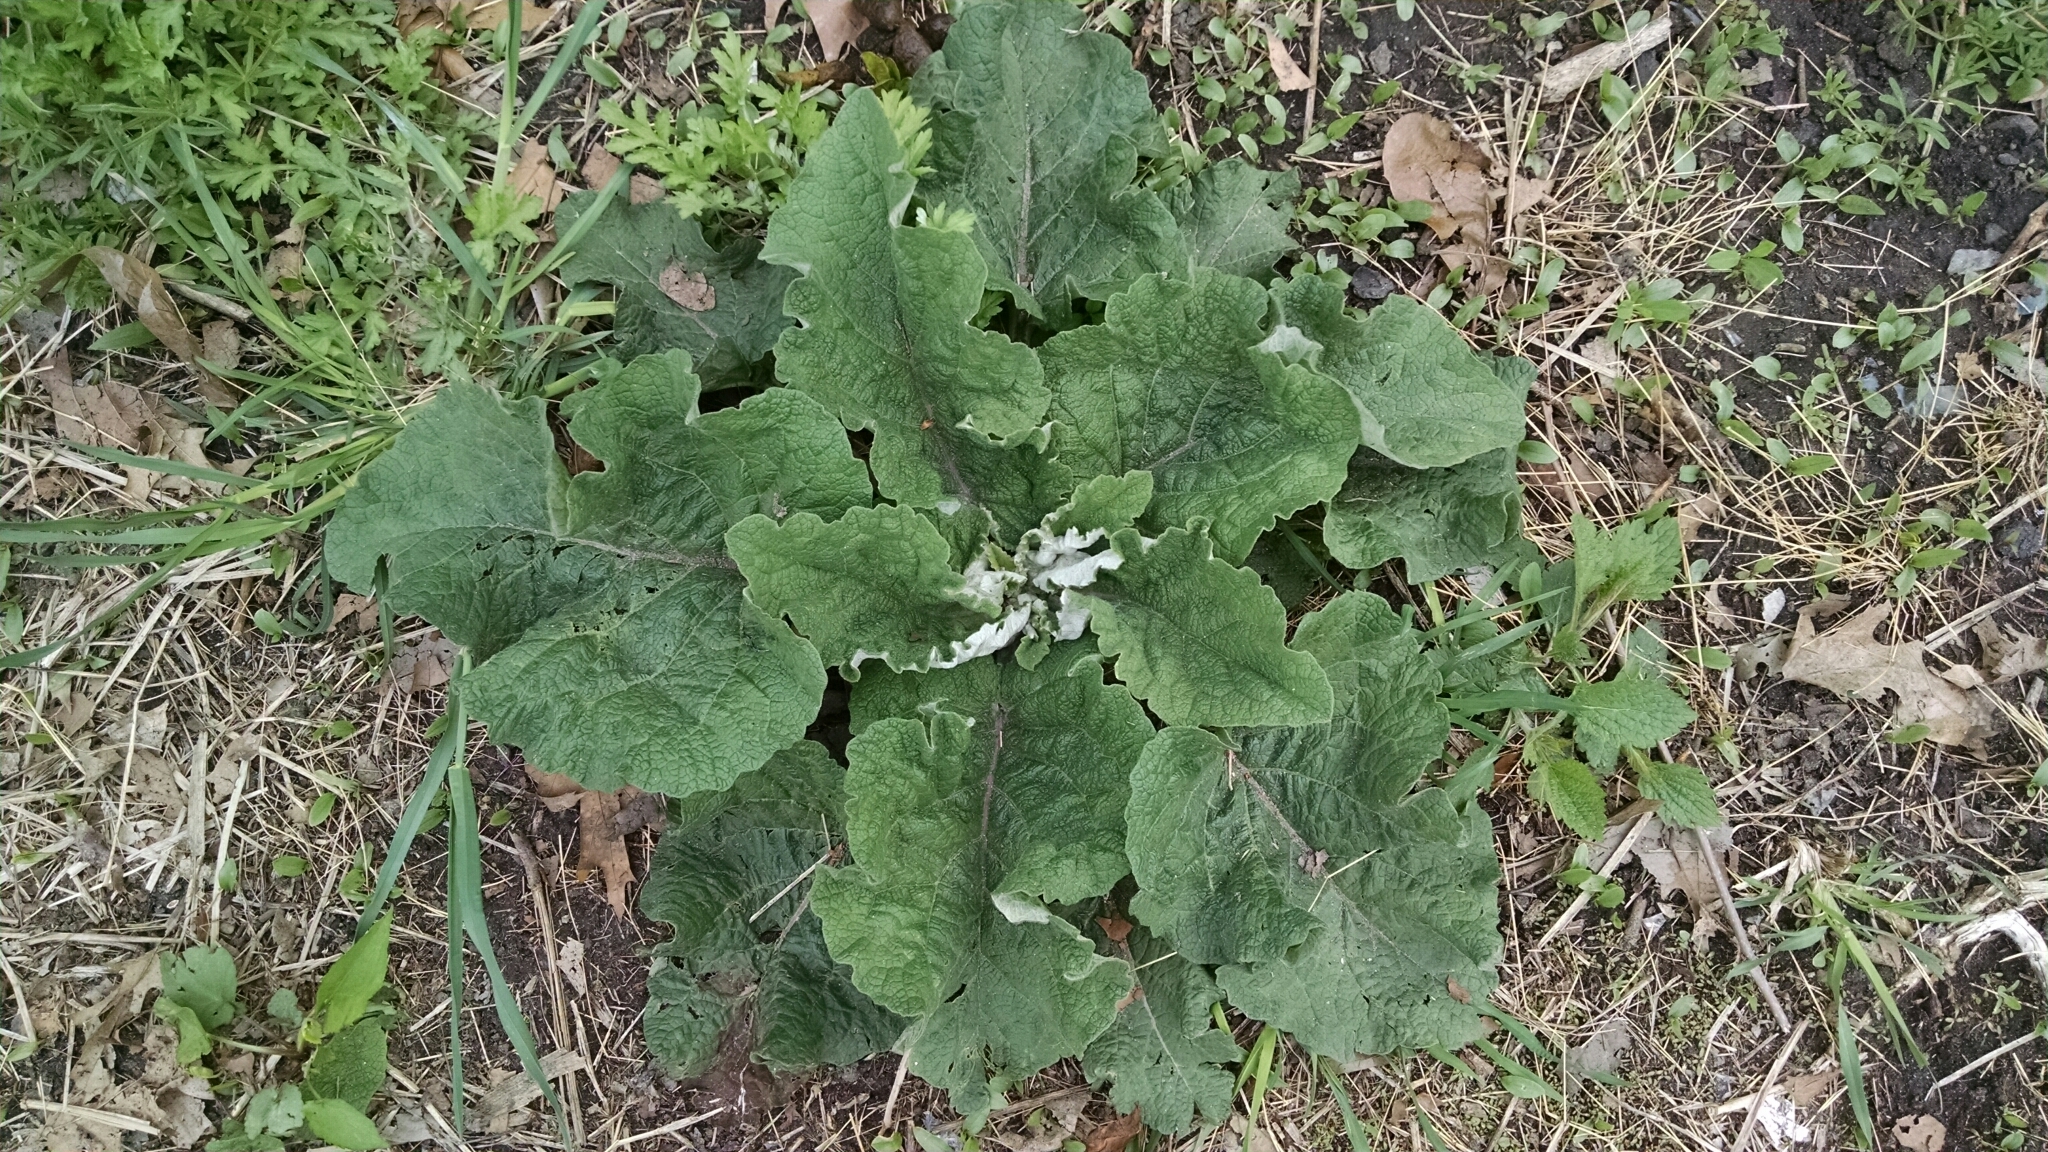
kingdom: Plantae
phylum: Tracheophyta
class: Magnoliopsida
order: Asterales
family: Asteraceae
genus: Arctium
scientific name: Arctium
